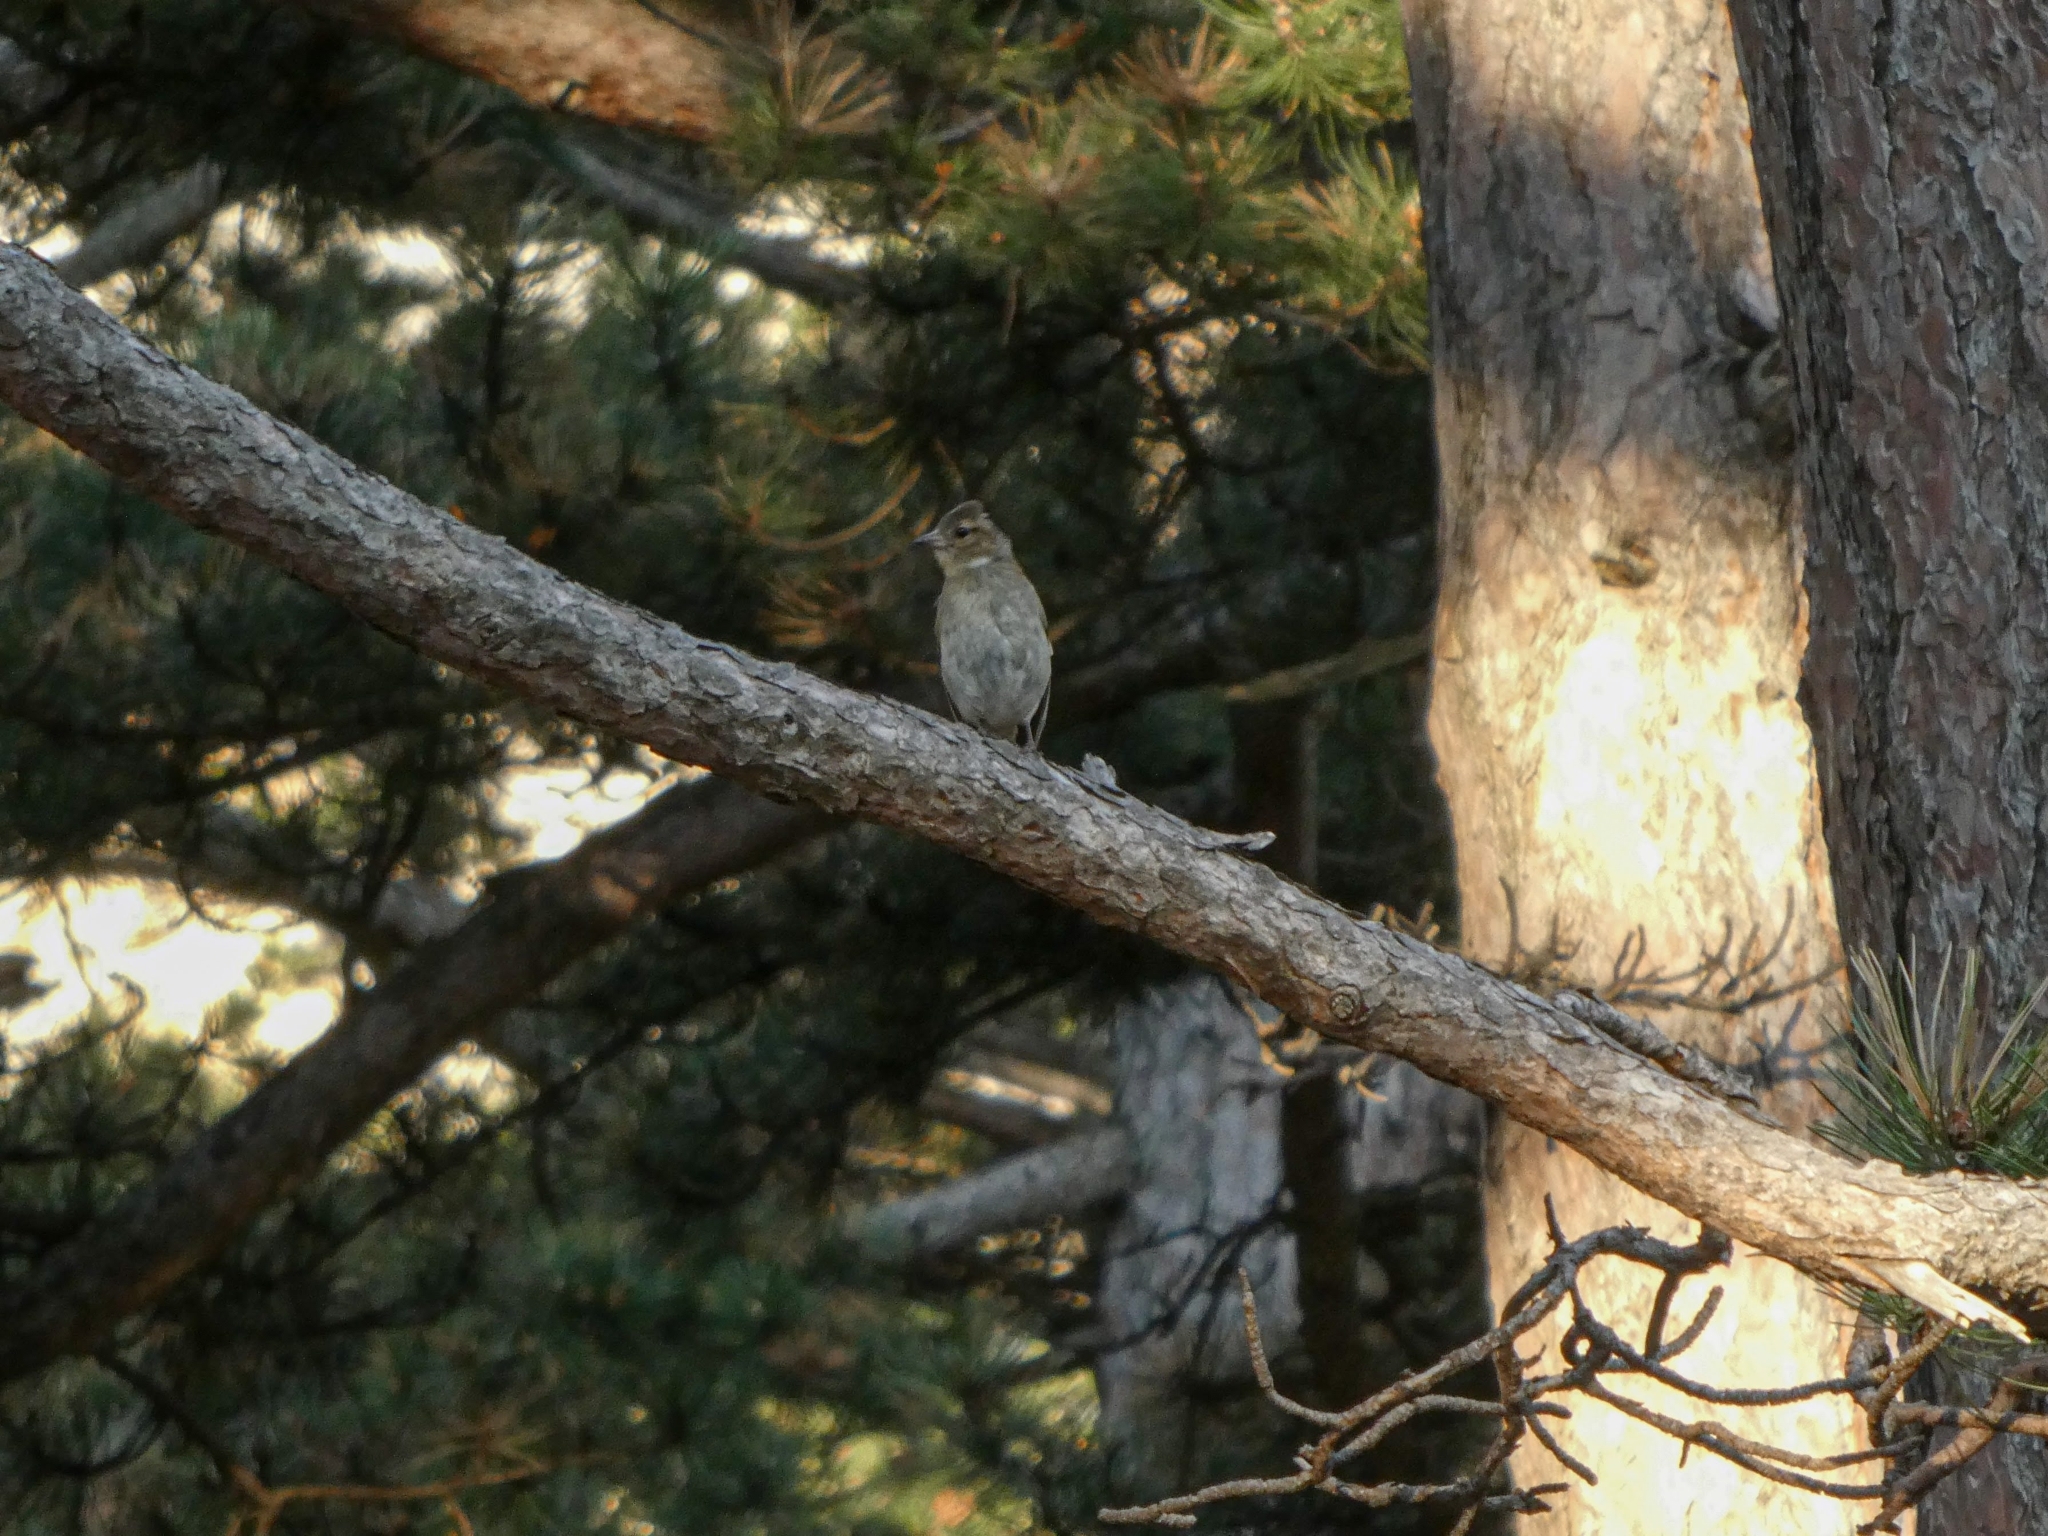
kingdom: Animalia
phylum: Chordata
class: Aves
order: Passeriformes
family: Fringillidae
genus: Fringilla
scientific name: Fringilla coelebs
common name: Common chaffinch
